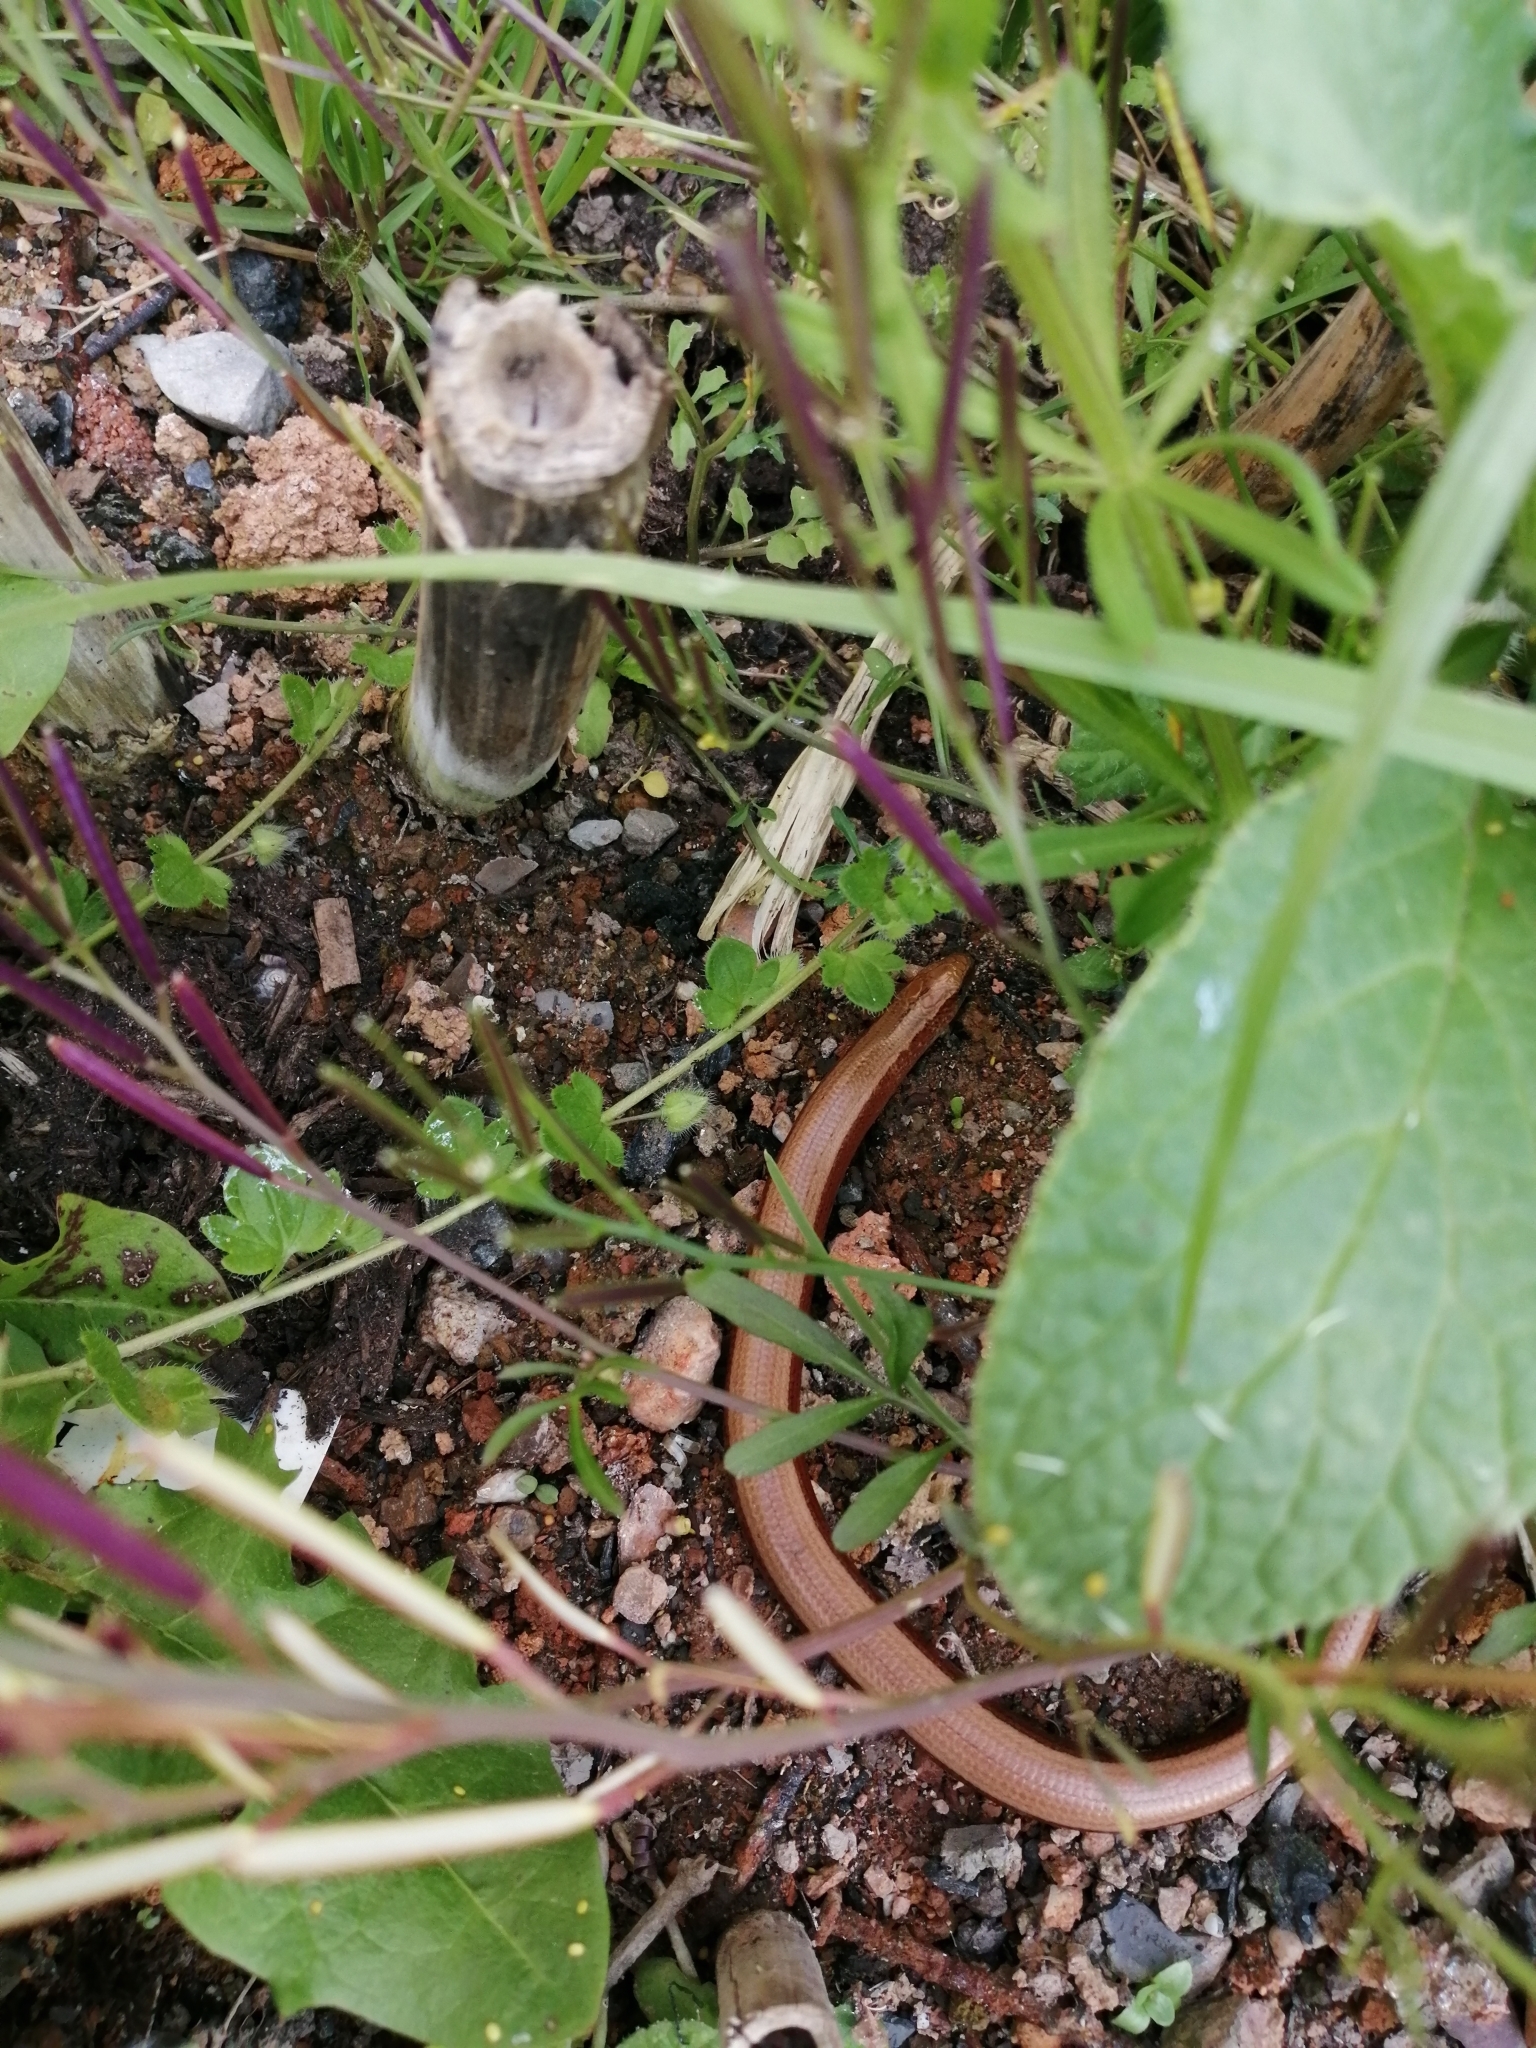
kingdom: Animalia
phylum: Chordata
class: Squamata
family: Anguidae
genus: Anguis
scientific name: Anguis fragilis
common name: Slow worm
